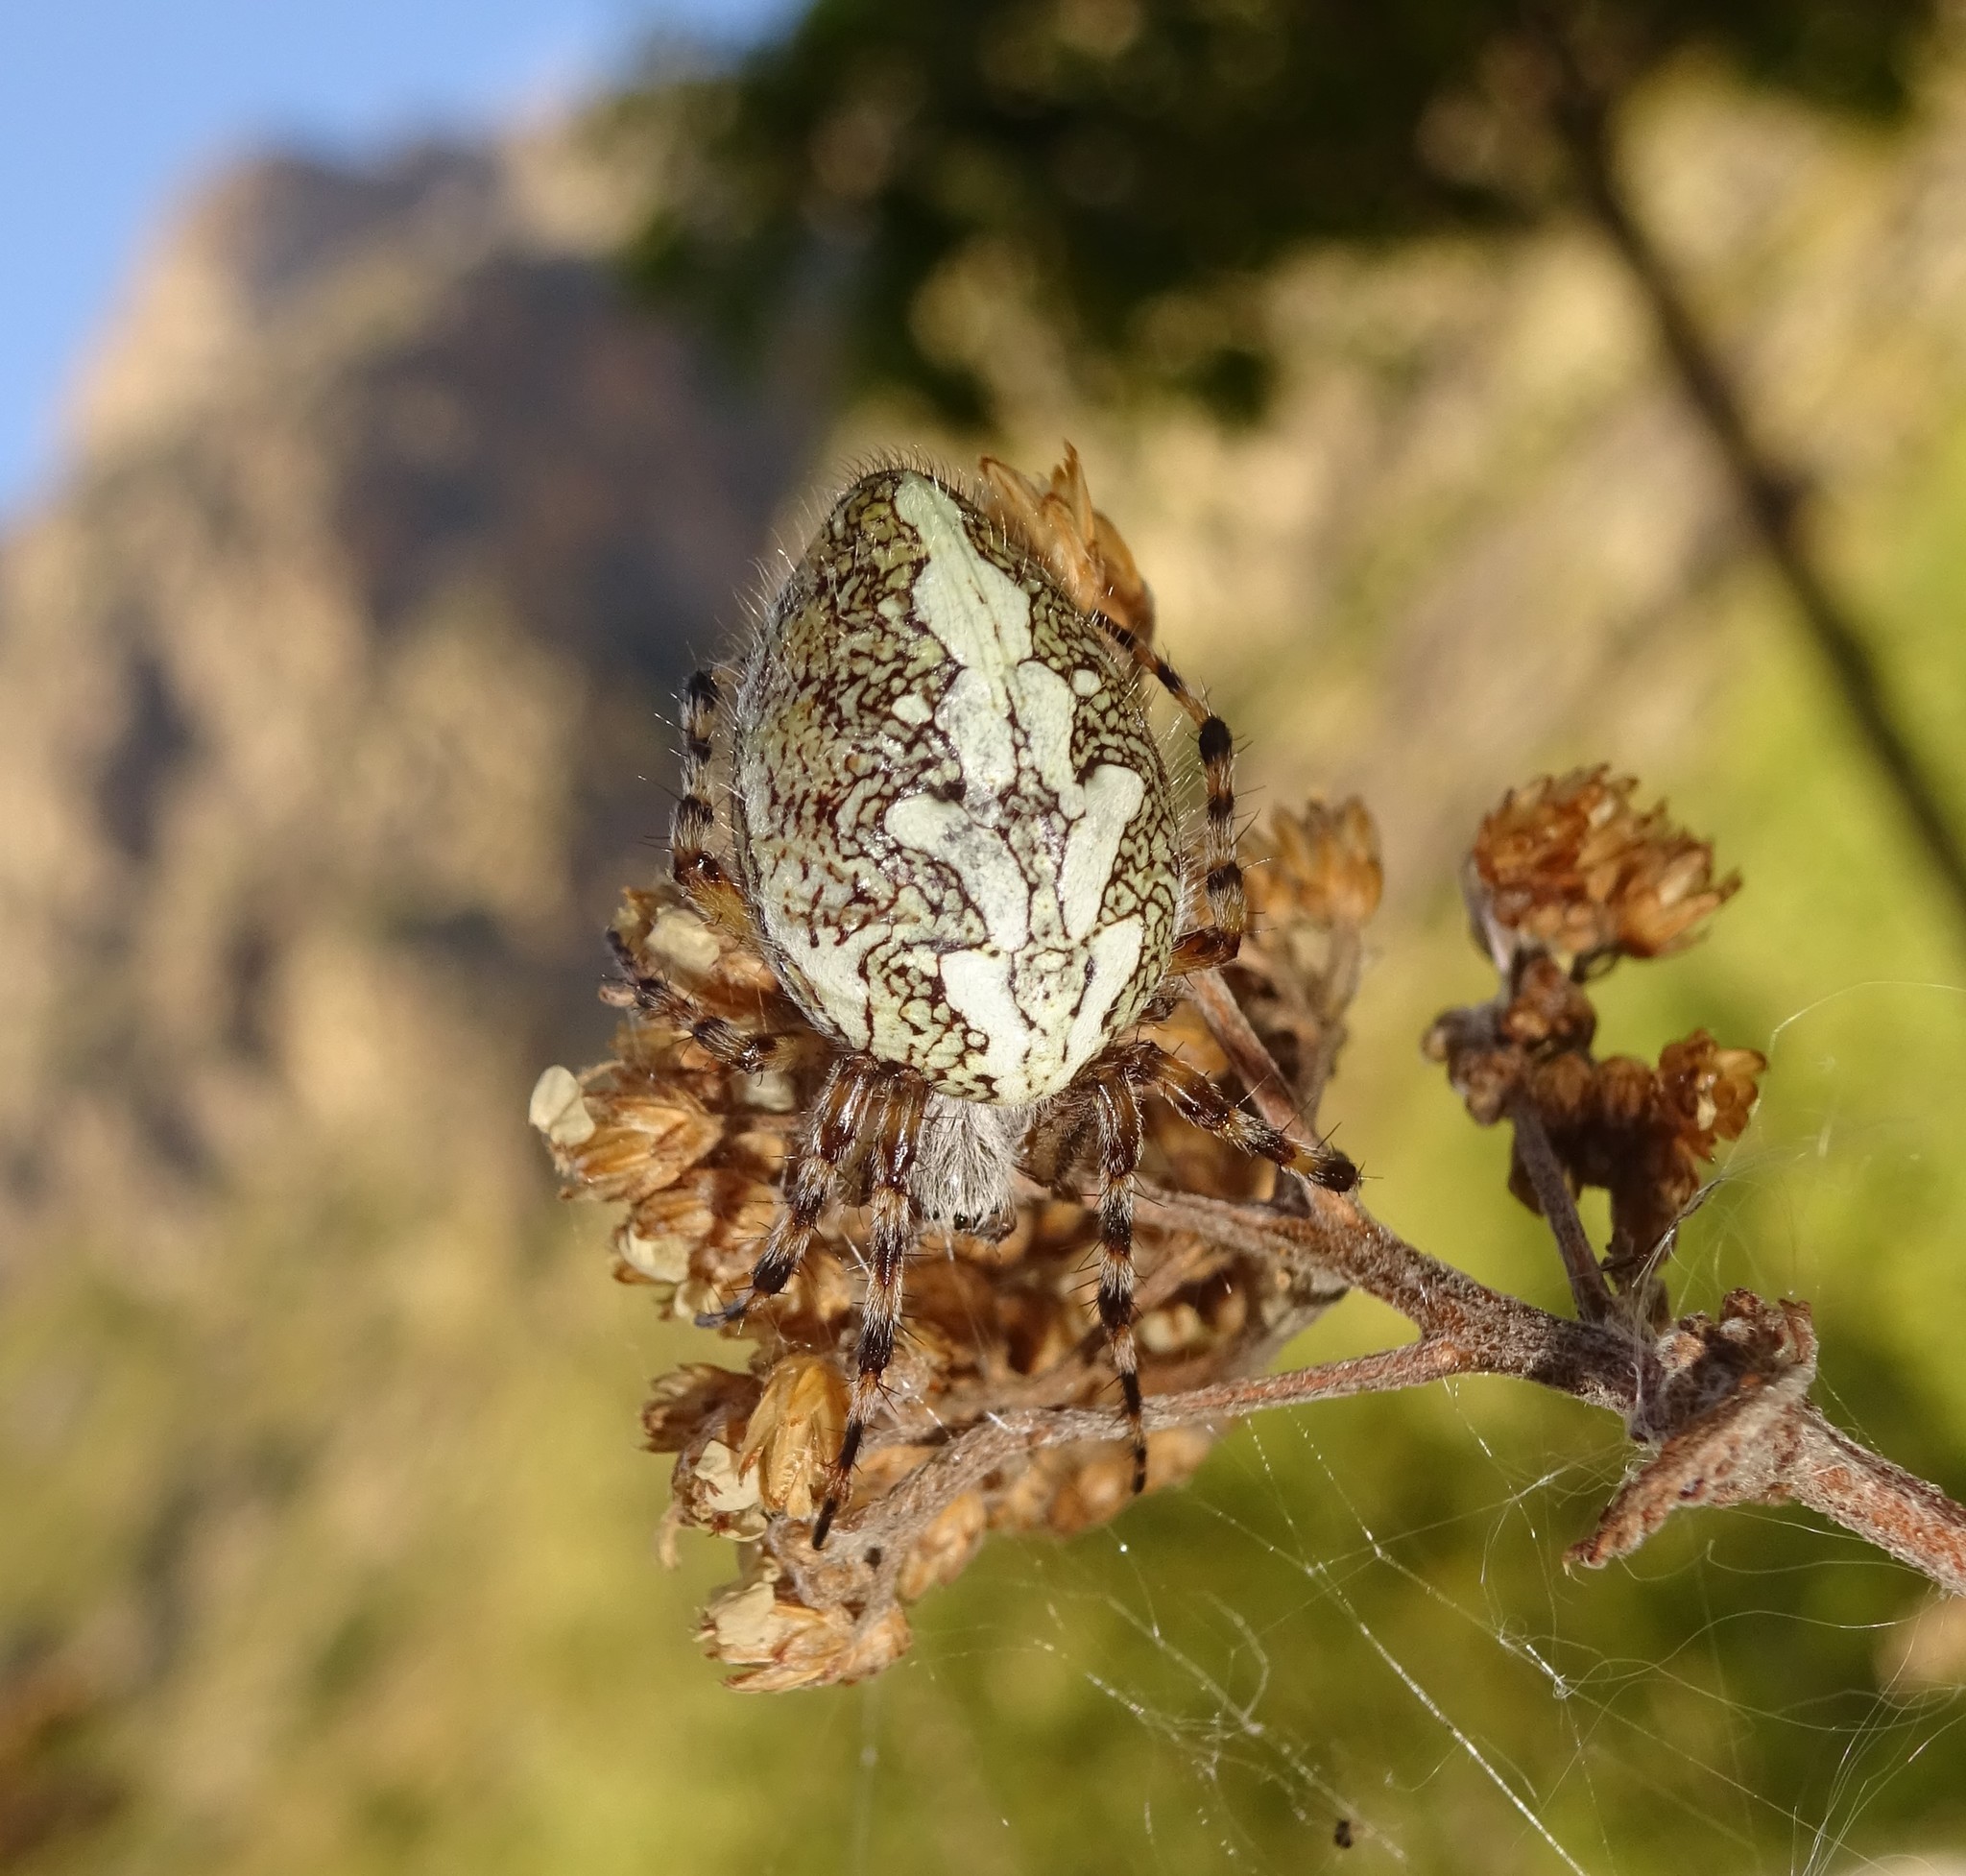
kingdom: Animalia
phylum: Arthropoda
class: Arachnida
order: Araneae
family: Araneidae
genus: Aculepeira
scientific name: Aculepeira ceropegia
